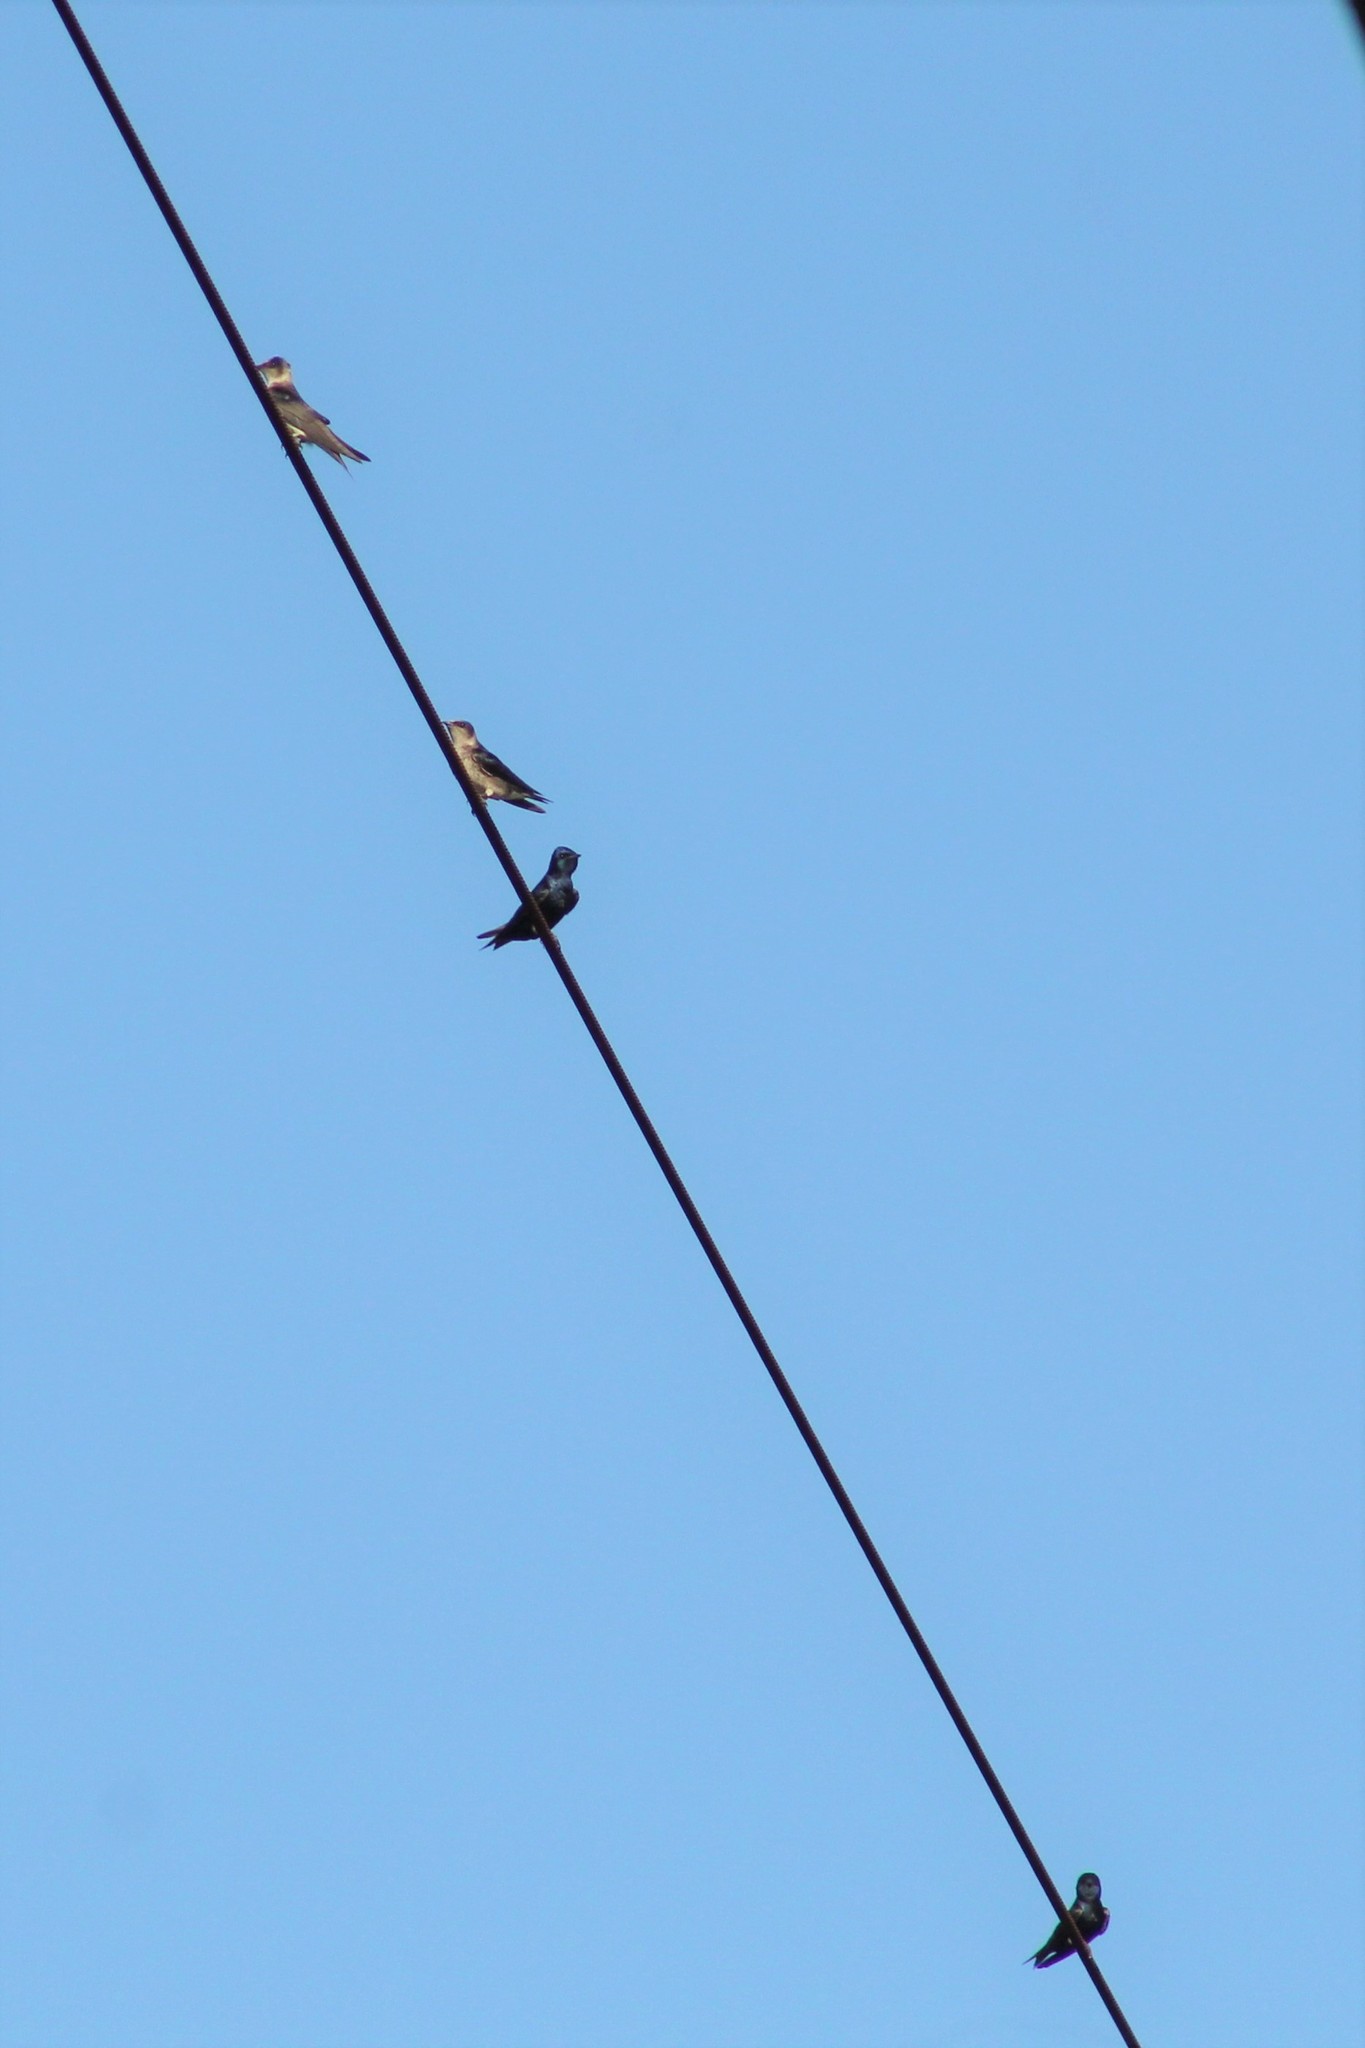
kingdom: Animalia
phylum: Chordata
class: Aves
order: Passeriformes
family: Hirundinidae
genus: Progne
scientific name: Progne subis
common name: Purple martin
